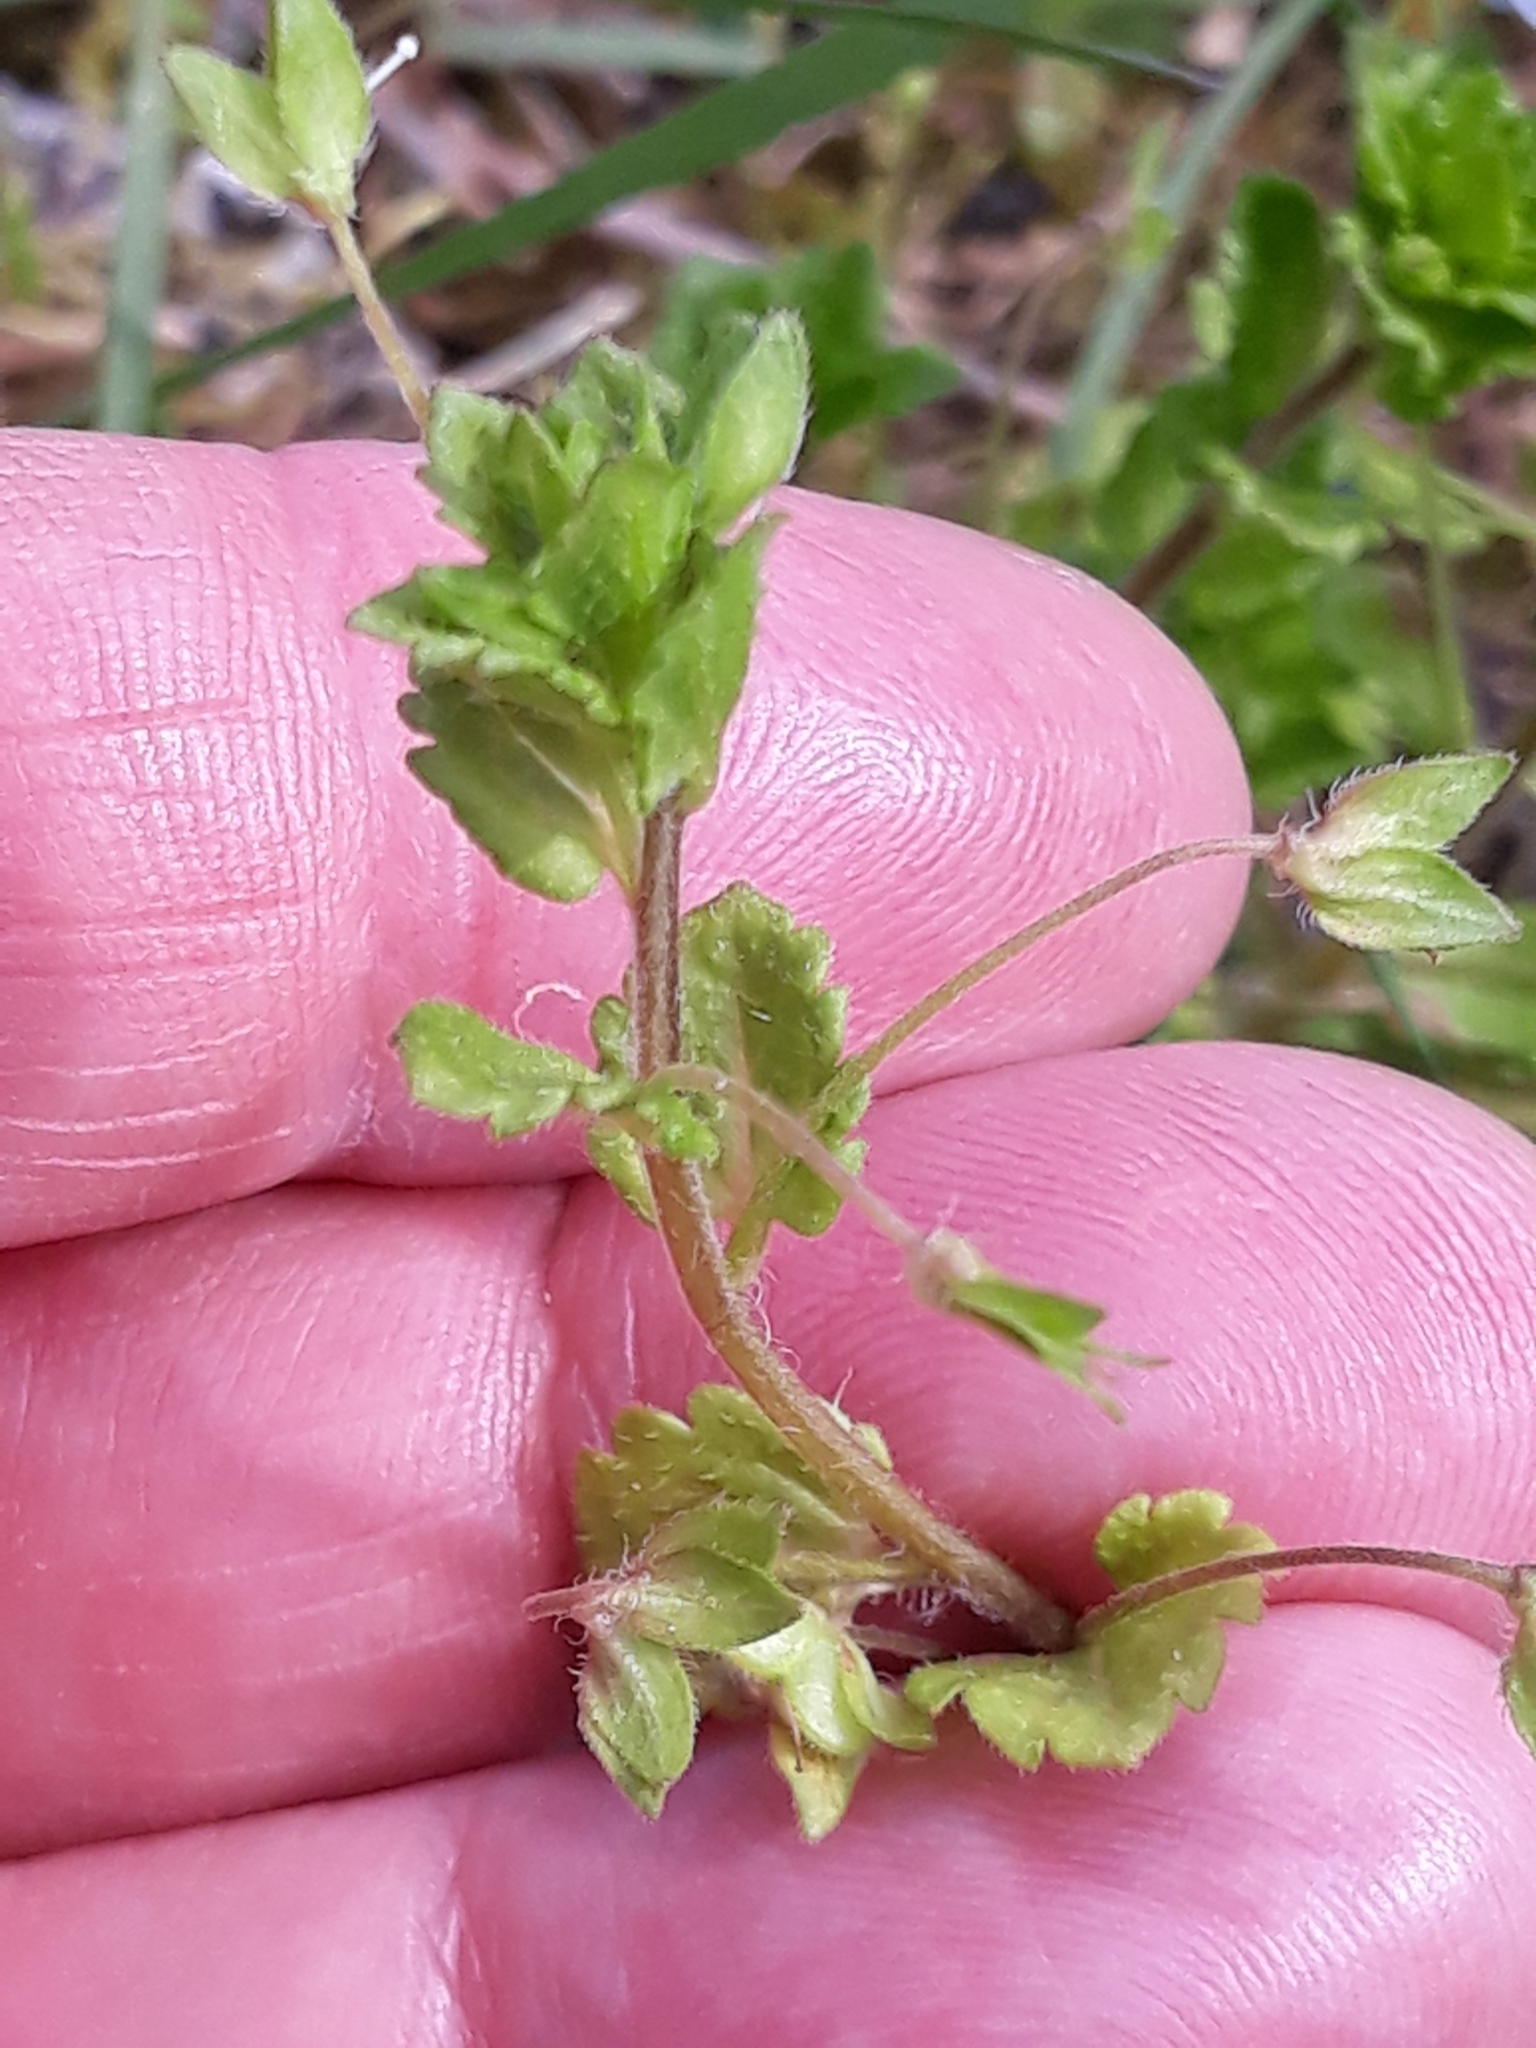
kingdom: Plantae
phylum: Tracheophyta
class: Magnoliopsida
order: Lamiales
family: Plantaginaceae
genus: Veronica
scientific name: Veronica persica
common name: Common field-speedwell
